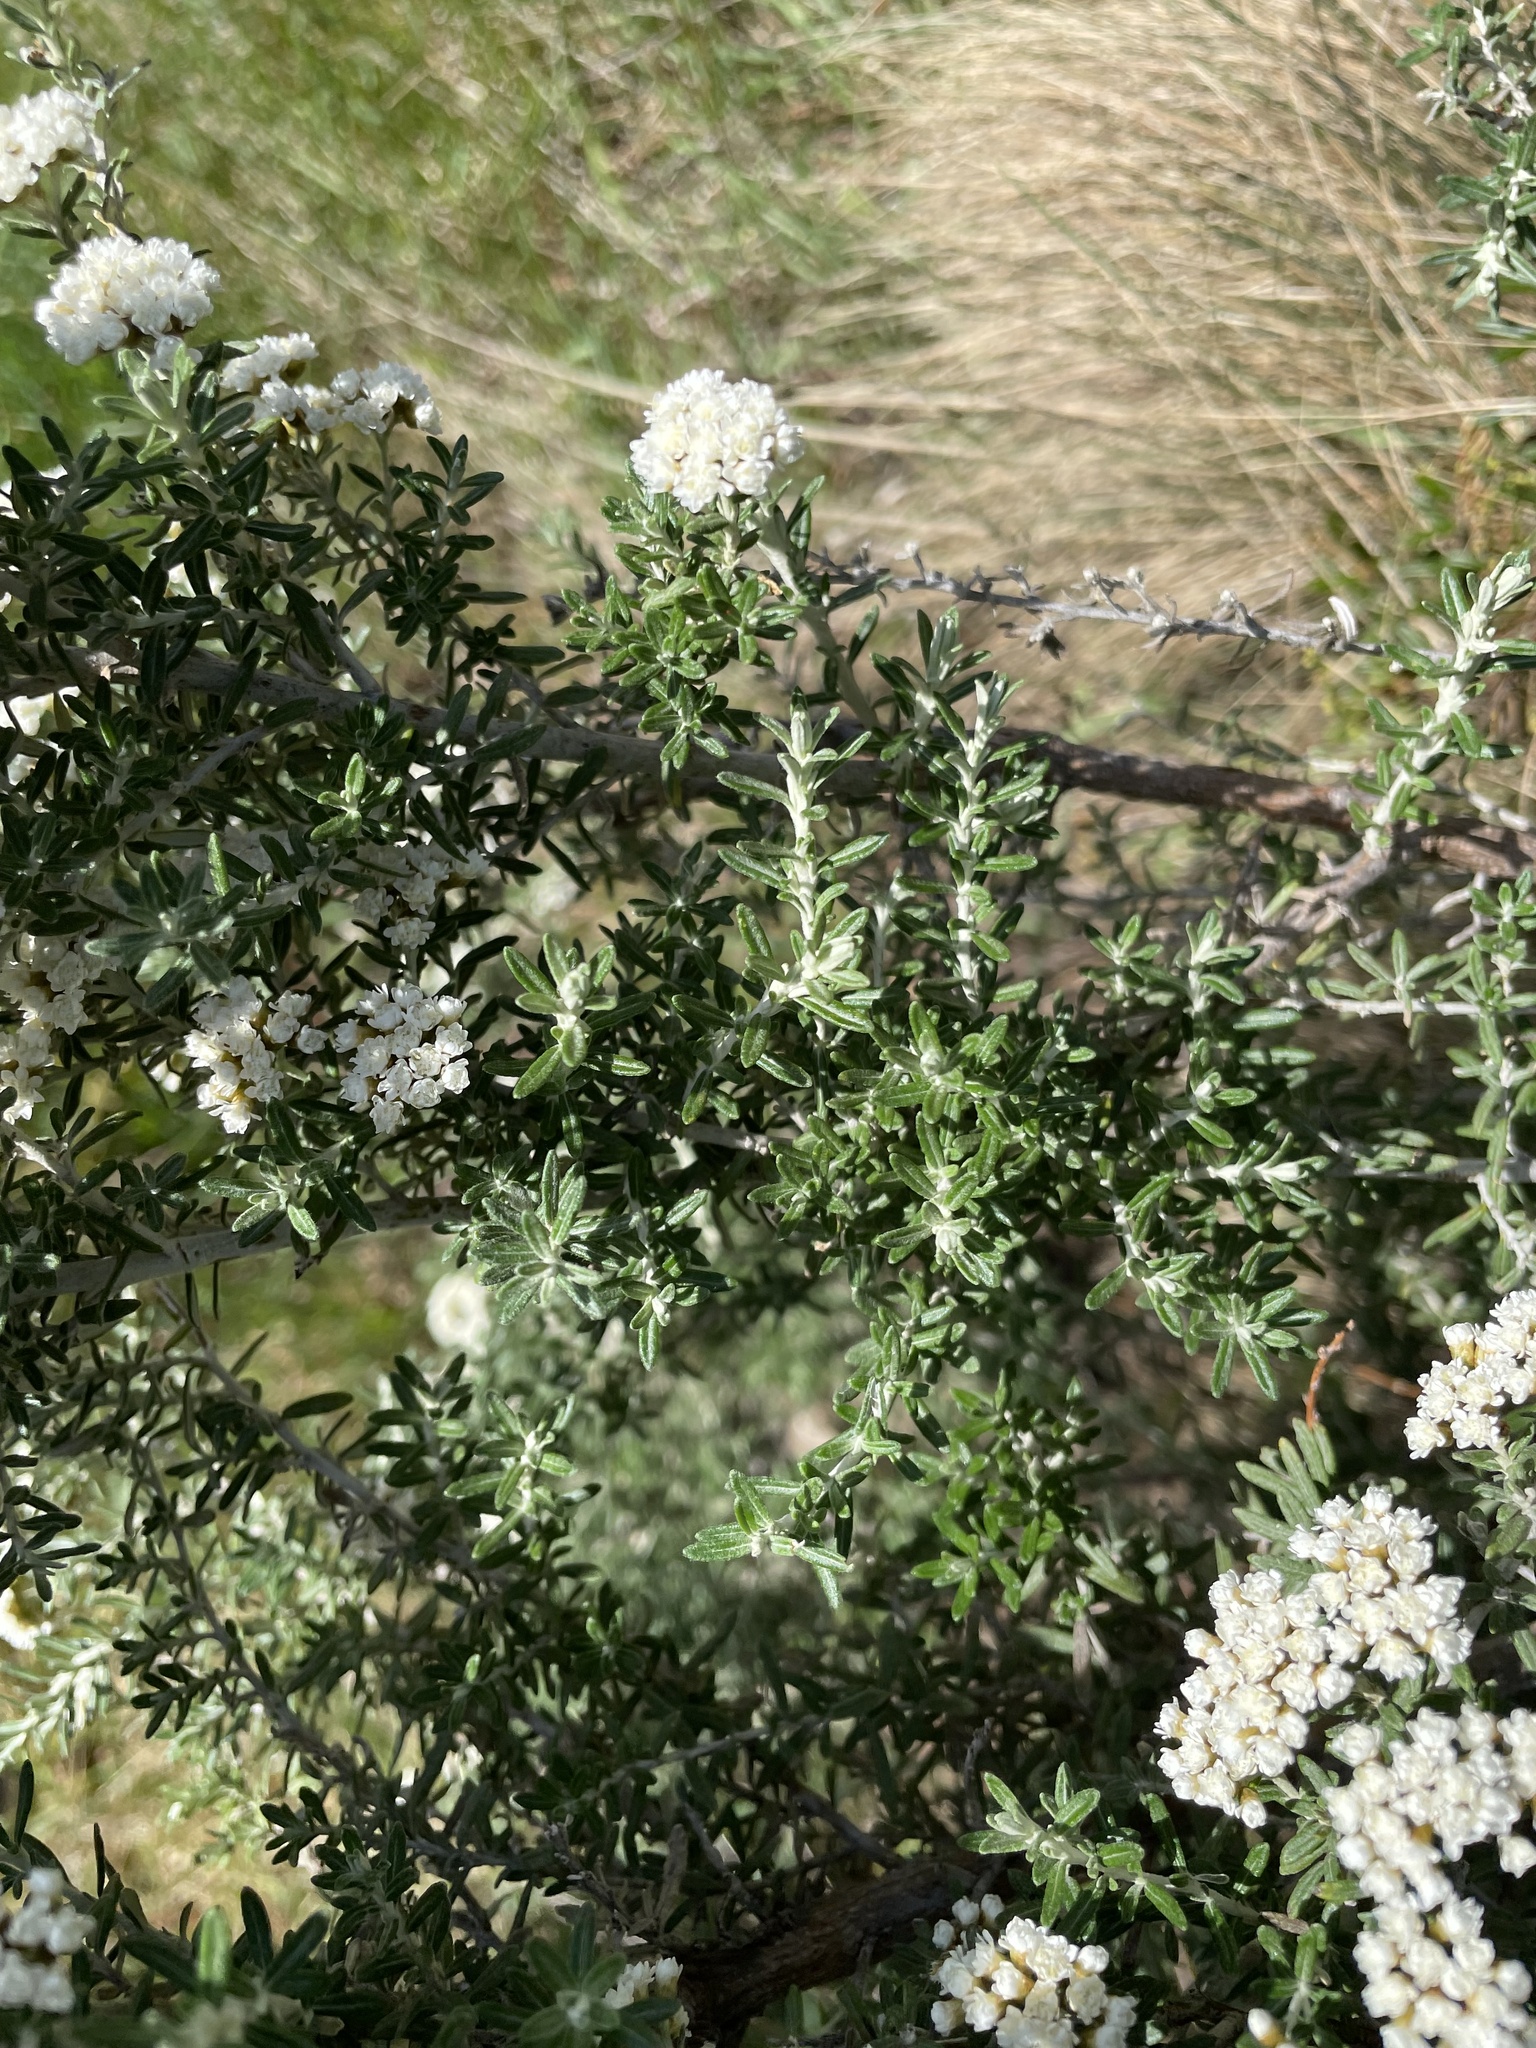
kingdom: Plantae
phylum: Tracheophyta
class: Magnoliopsida
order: Asterales
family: Asteraceae
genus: Ozothamnus
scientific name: Ozothamnus secundiflorus
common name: Cascade everlasting
